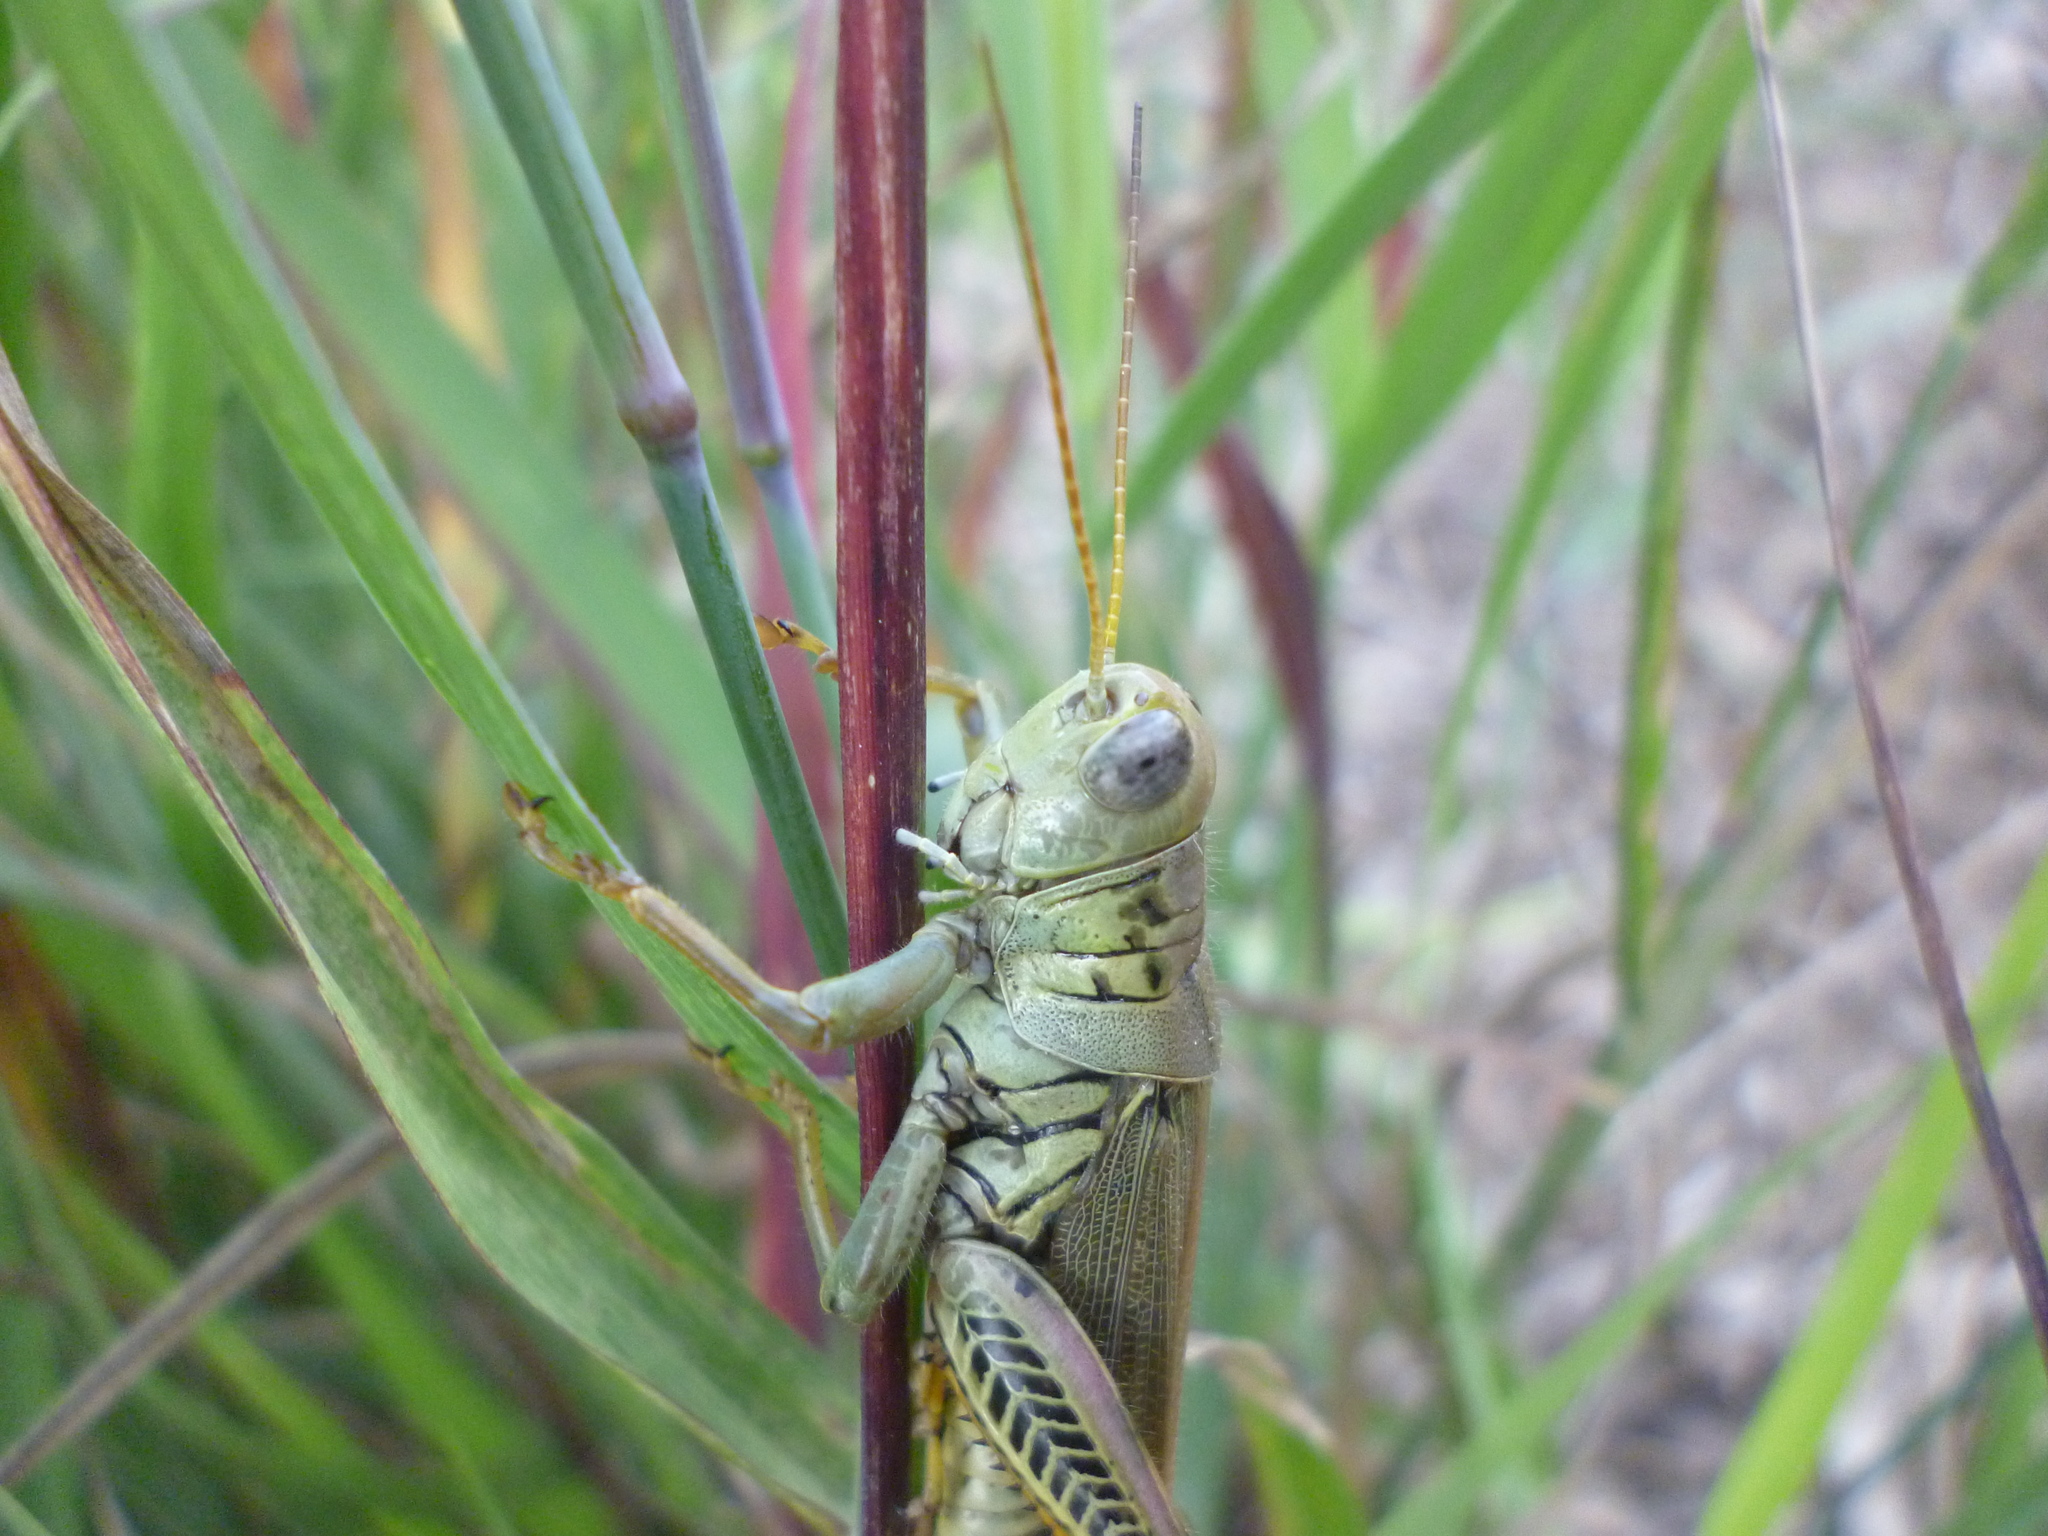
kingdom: Animalia
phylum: Arthropoda
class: Insecta
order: Orthoptera
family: Acrididae
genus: Melanoplus
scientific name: Melanoplus differentialis
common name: Differential grasshopper
